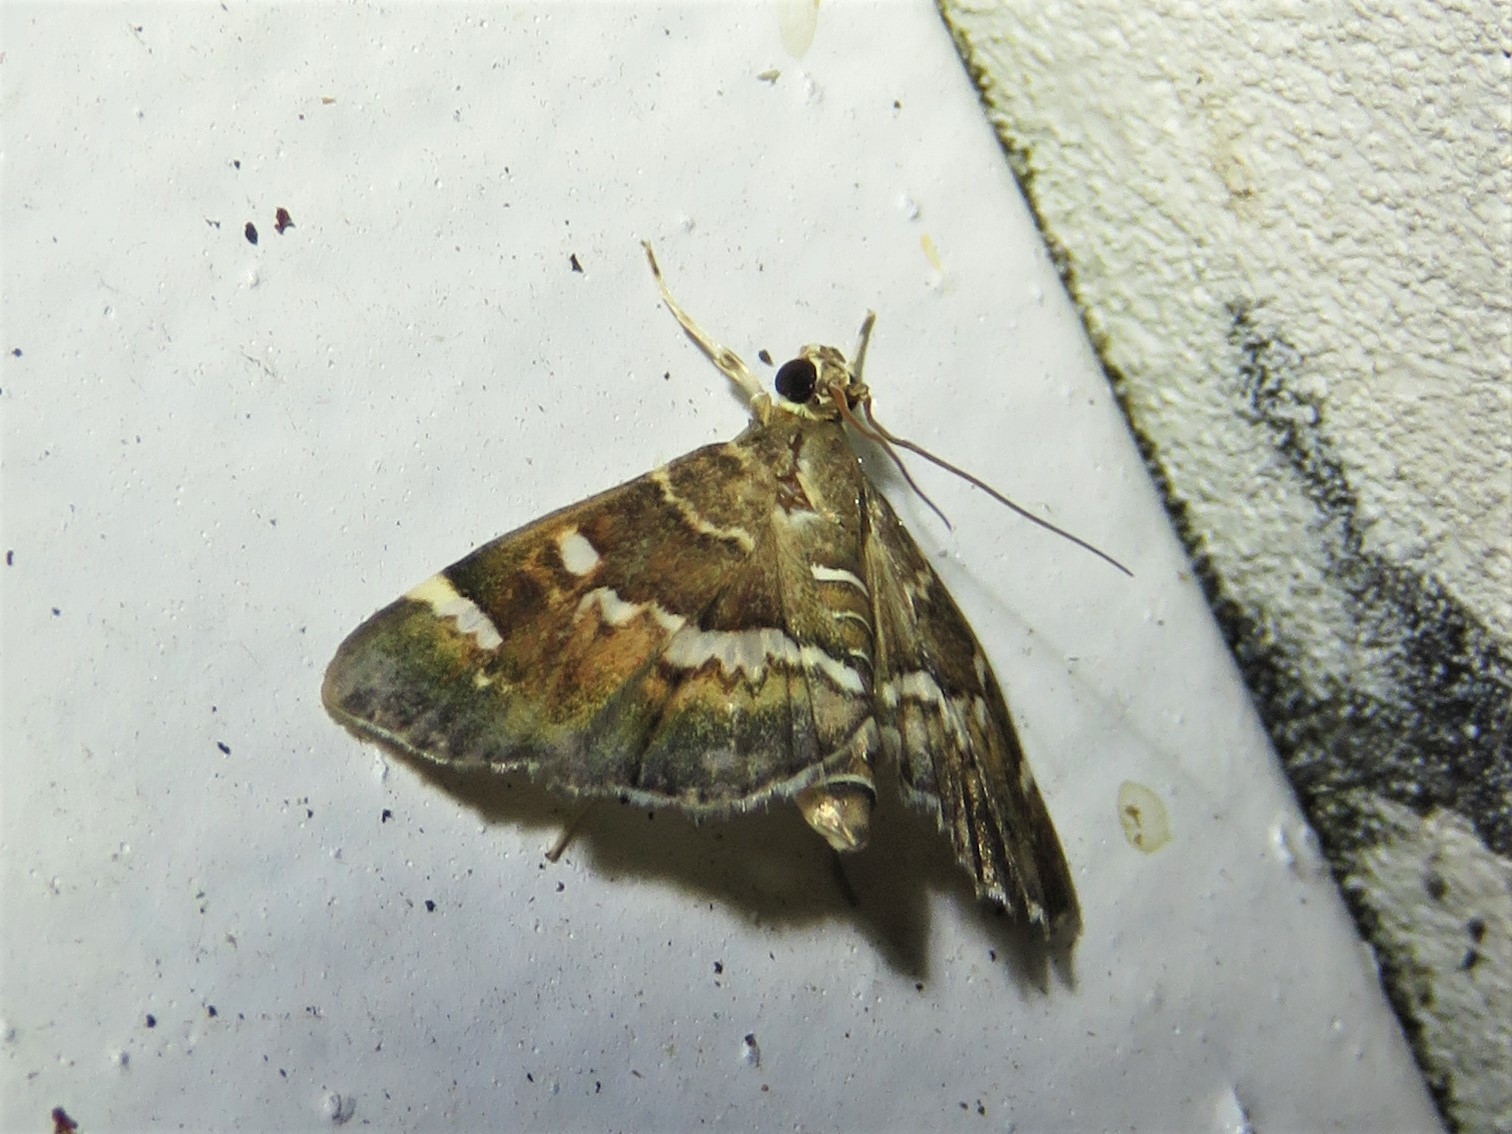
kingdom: Animalia
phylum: Arthropoda
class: Insecta
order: Lepidoptera
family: Crambidae
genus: Hymenia
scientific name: Hymenia perspectalis
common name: Spotted beet webworm
